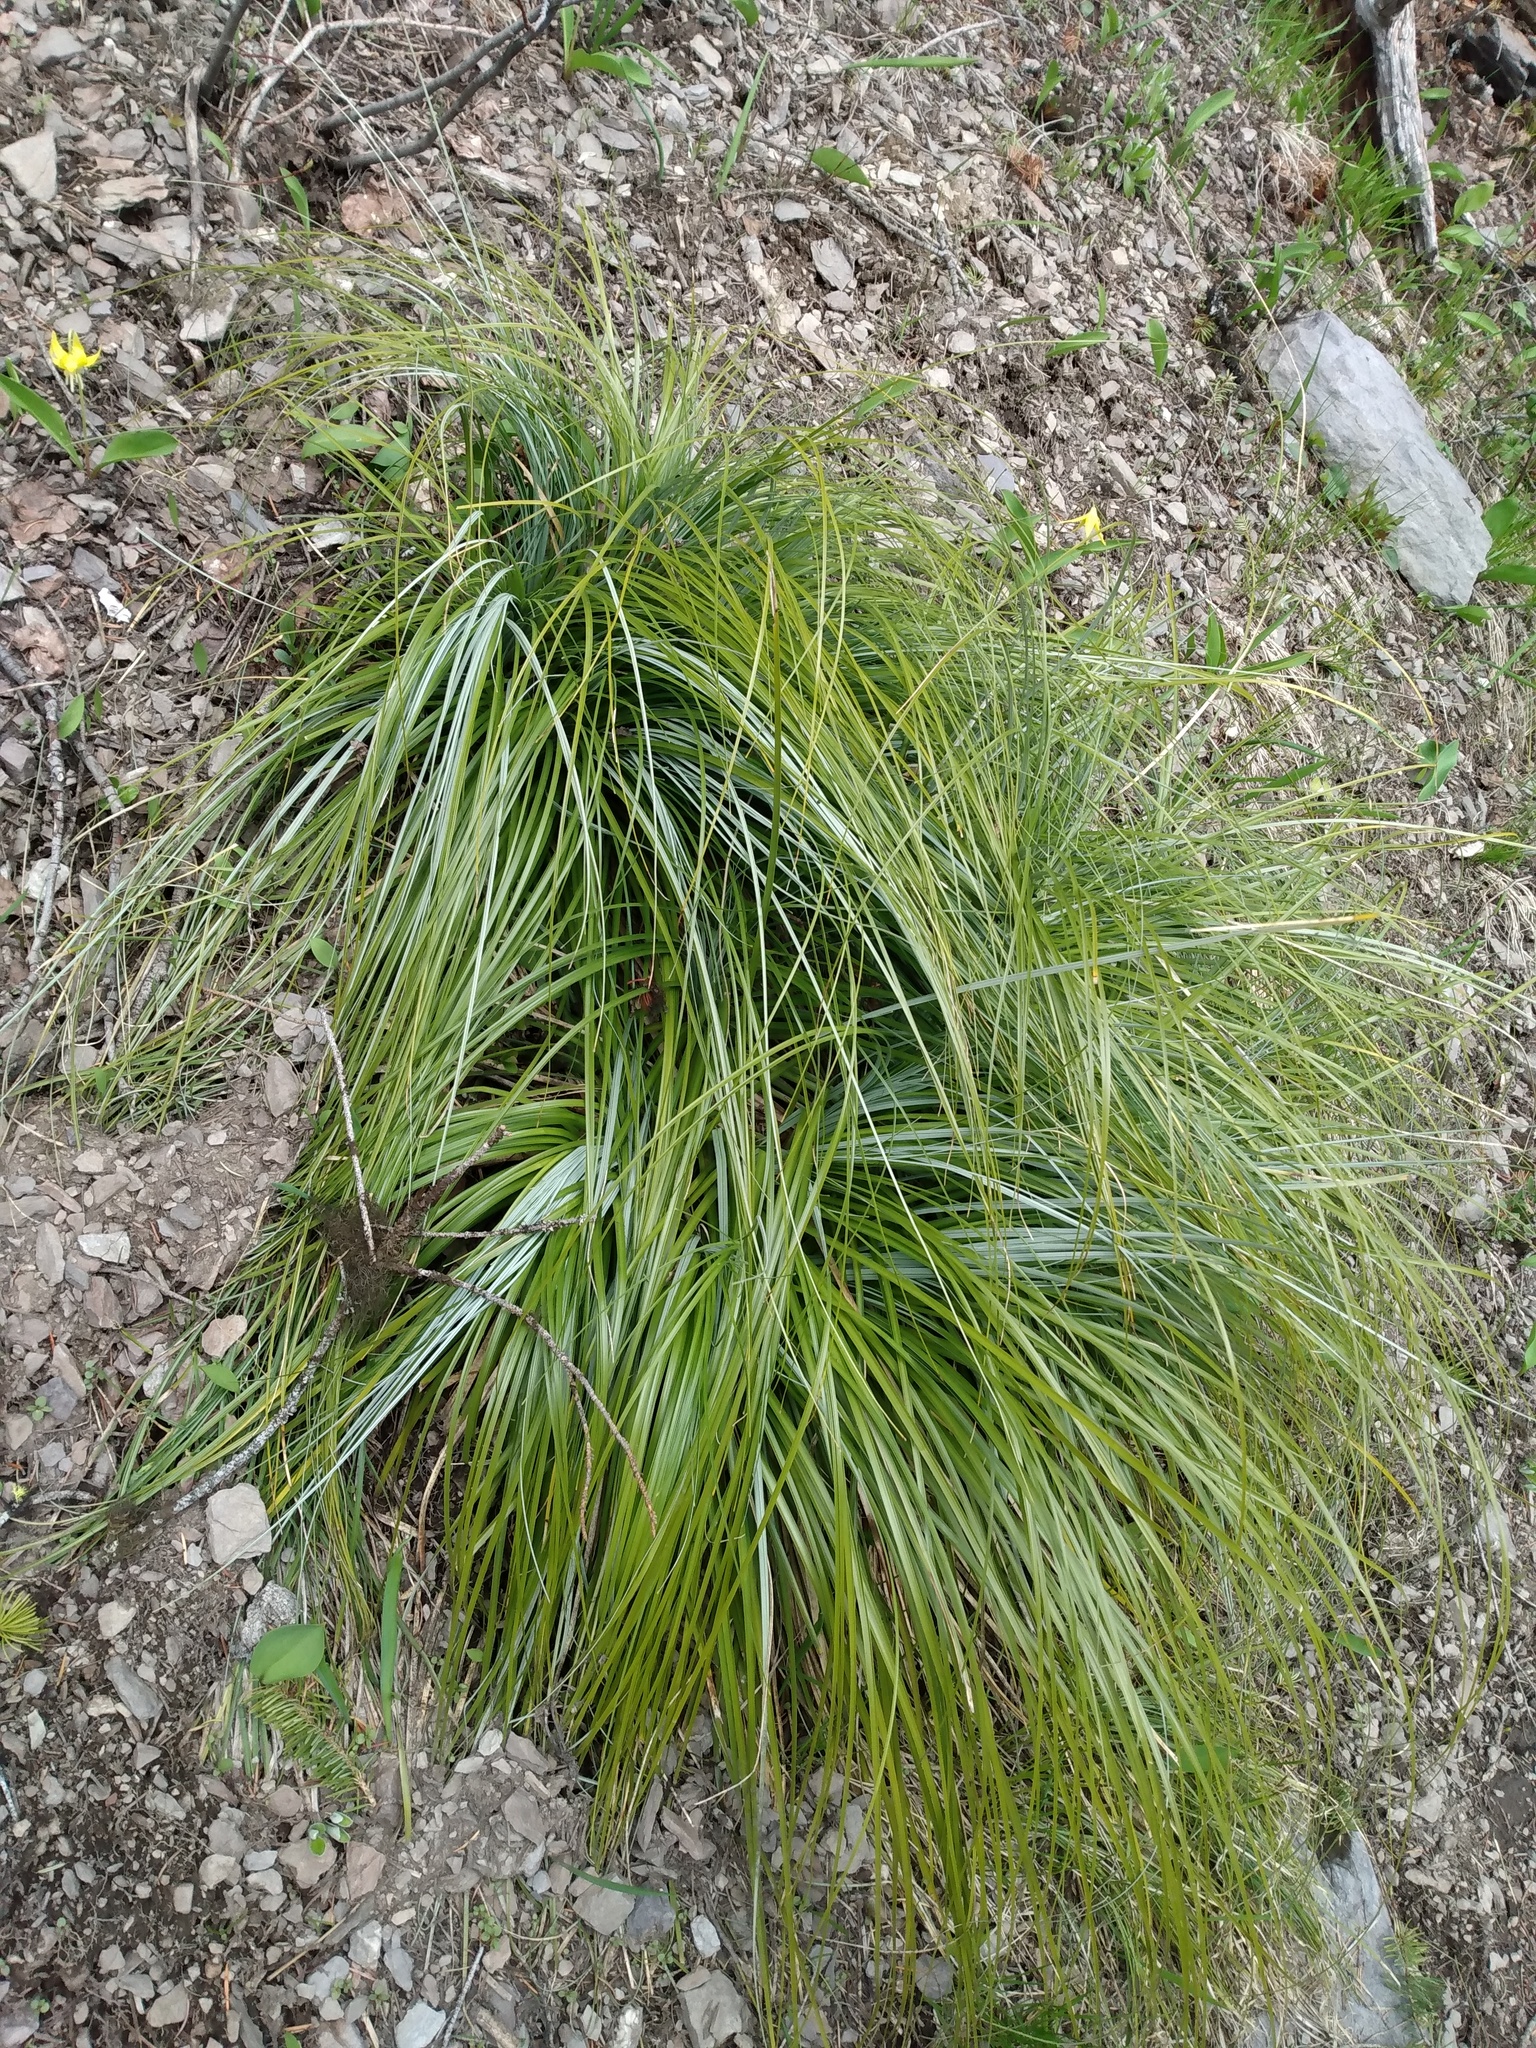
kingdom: Plantae
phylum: Tracheophyta
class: Liliopsida
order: Liliales
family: Melanthiaceae
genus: Xerophyllum
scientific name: Xerophyllum tenax
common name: Bear-grass
